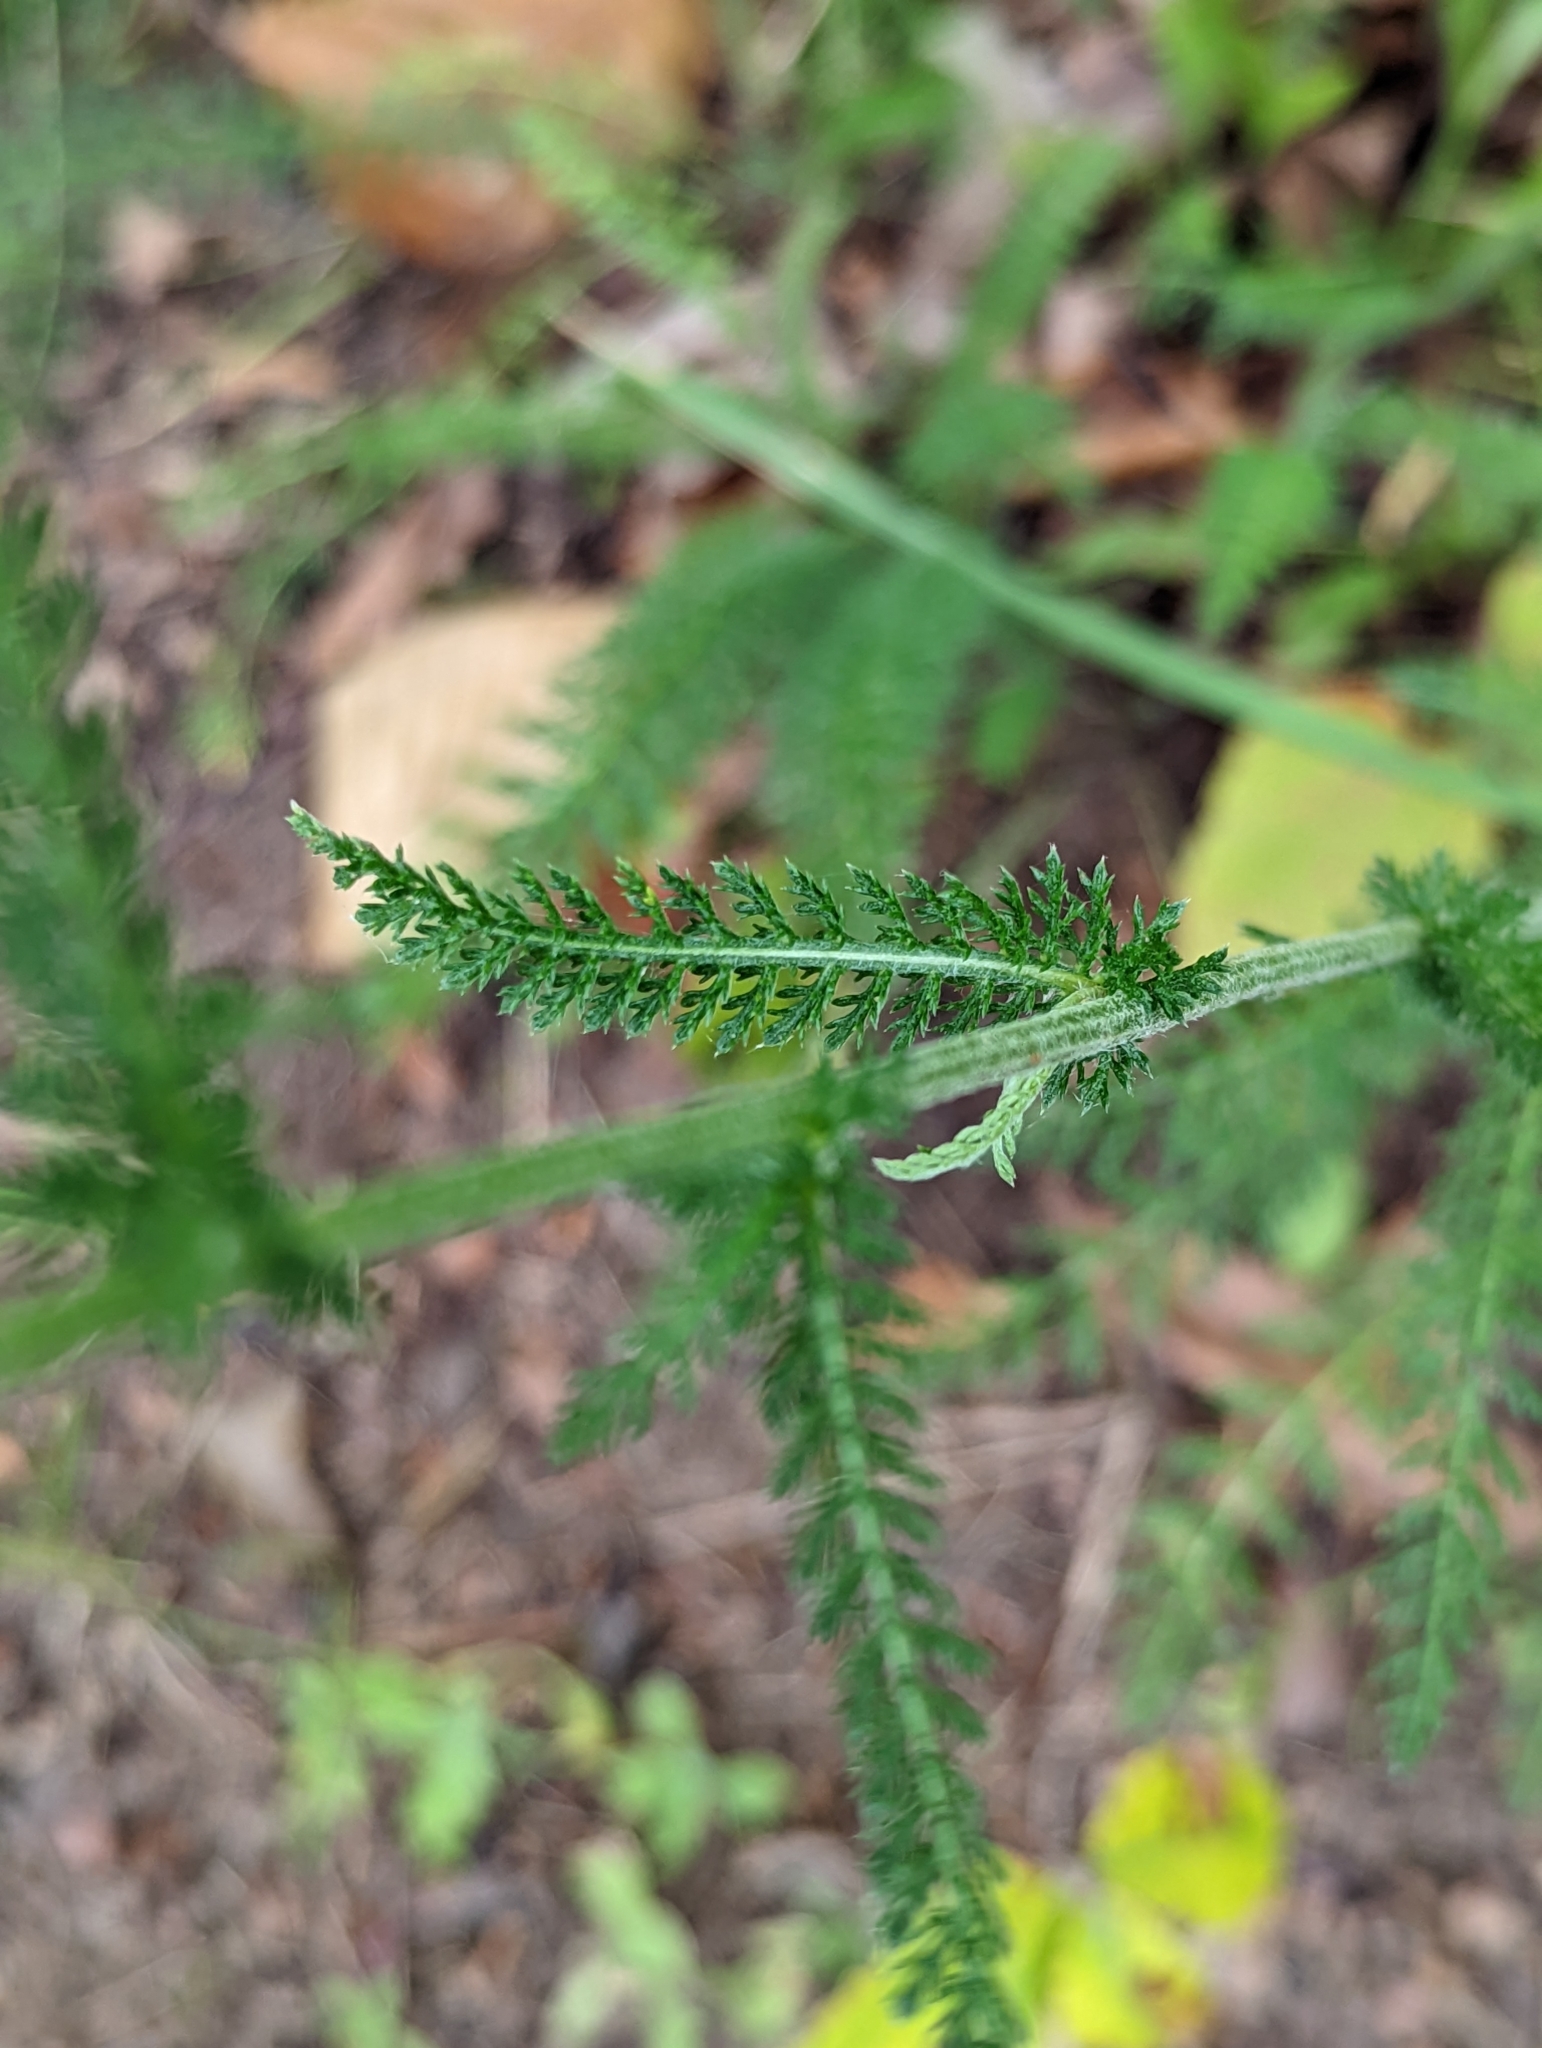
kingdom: Plantae
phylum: Tracheophyta
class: Magnoliopsida
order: Asterales
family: Asteraceae
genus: Achillea
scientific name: Achillea millefolium
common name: Yarrow
